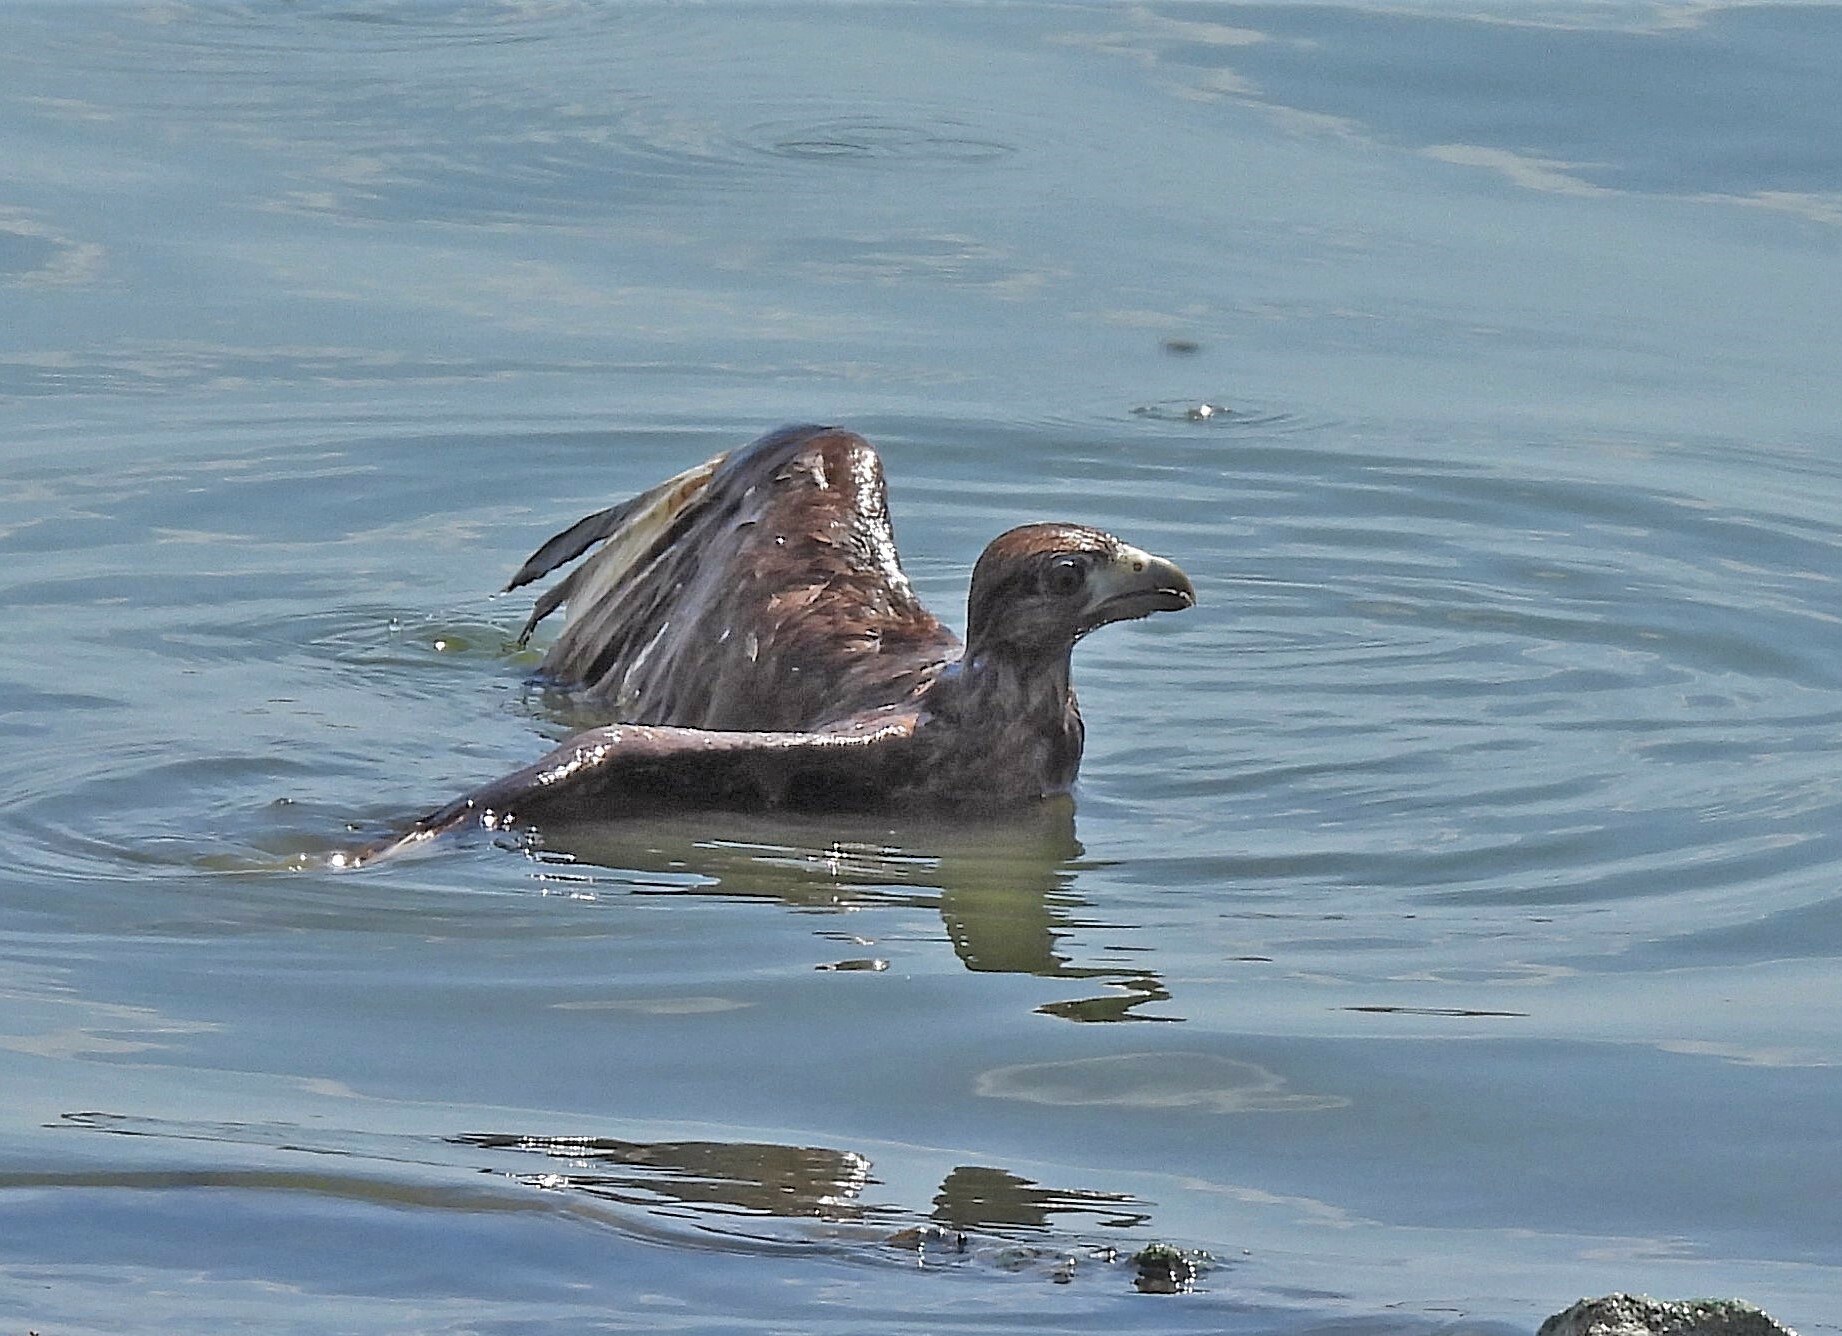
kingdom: Animalia
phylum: Chordata
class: Aves
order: Falconiformes
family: Falconidae
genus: Daptrius
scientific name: Daptrius
